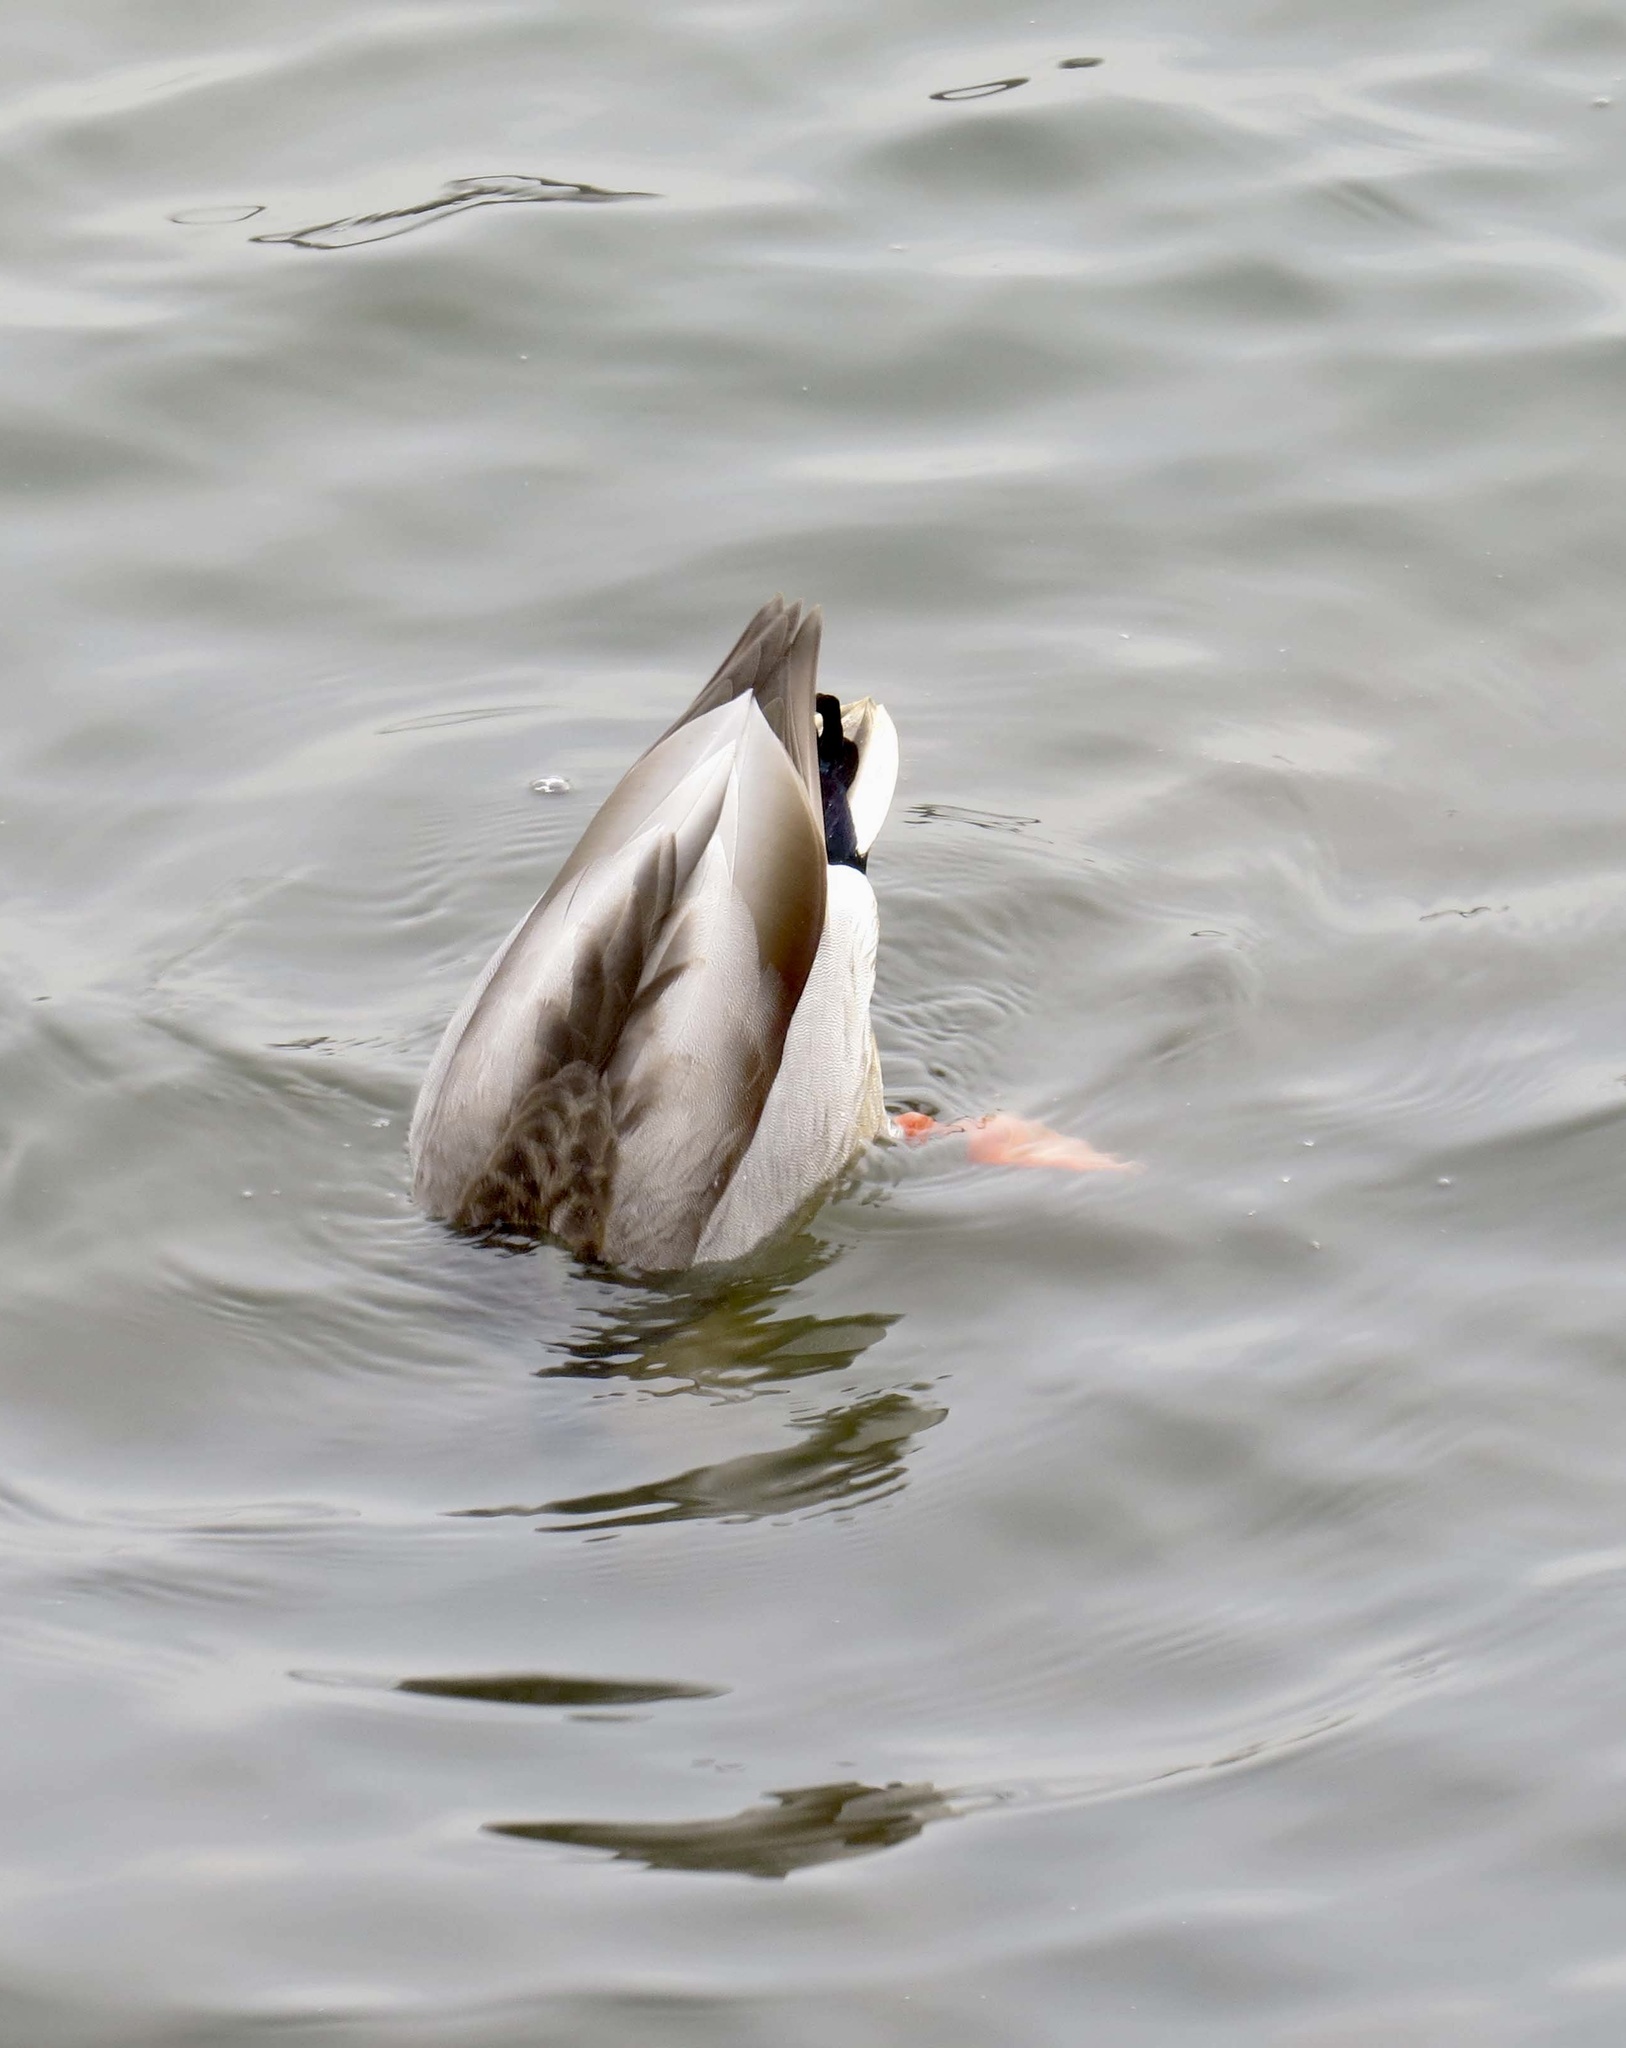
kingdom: Animalia
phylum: Chordata
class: Aves
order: Anseriformes
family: Anatidae
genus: Anas
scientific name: Anas platyrhynchos
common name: Mallard
